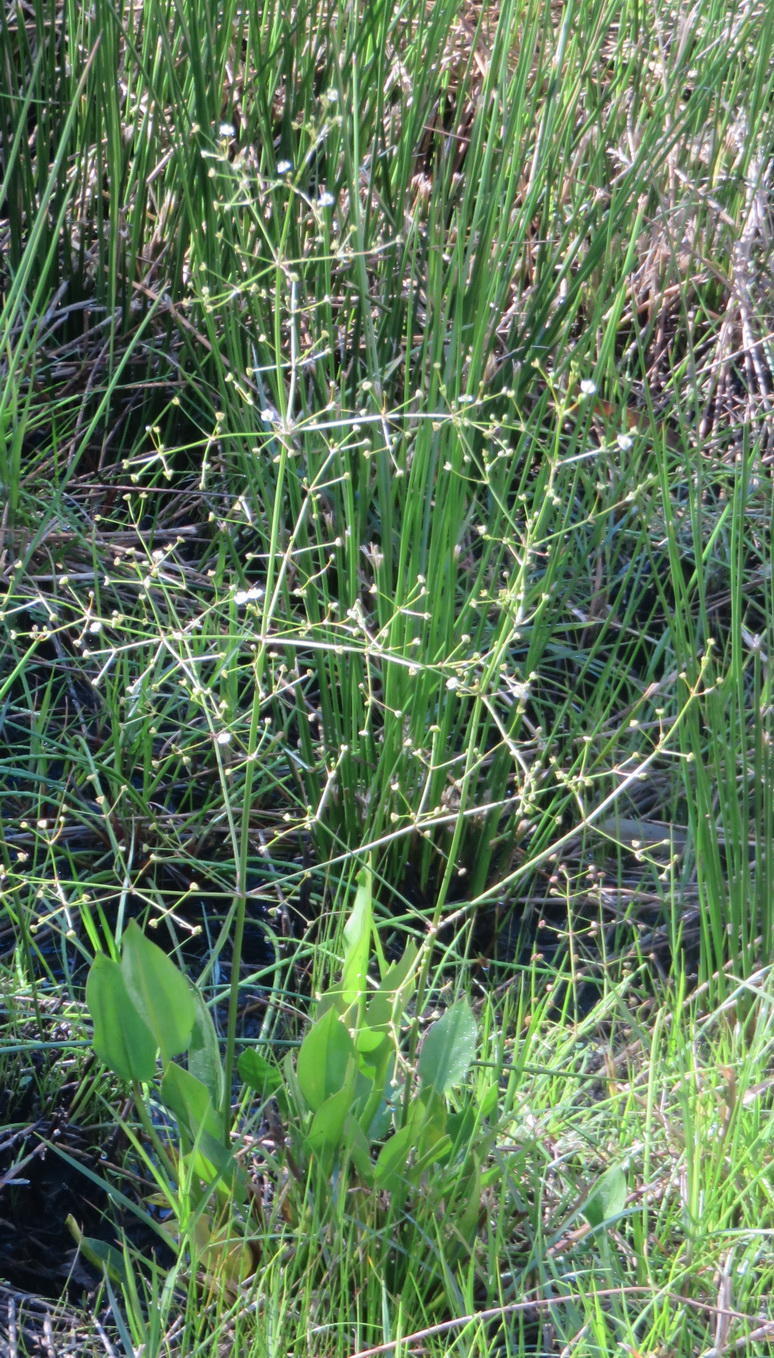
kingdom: Plantae
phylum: Tracheophyta
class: Liliopsida
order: Alismatales
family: Alismataceae
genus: Alisma
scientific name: Alisma plantago-aquatica
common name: Water-plantain
